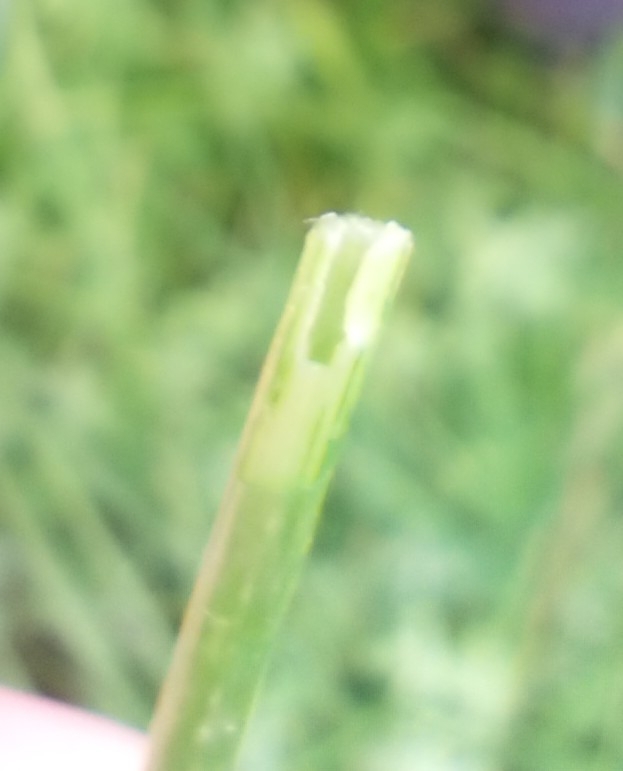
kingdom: Plantae
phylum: Tracheophyta
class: Magnoliopsida
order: Fabales
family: Fabaceae
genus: Lotus
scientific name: Lotus pedunculatus
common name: Greater birdsfoot-trefoil
